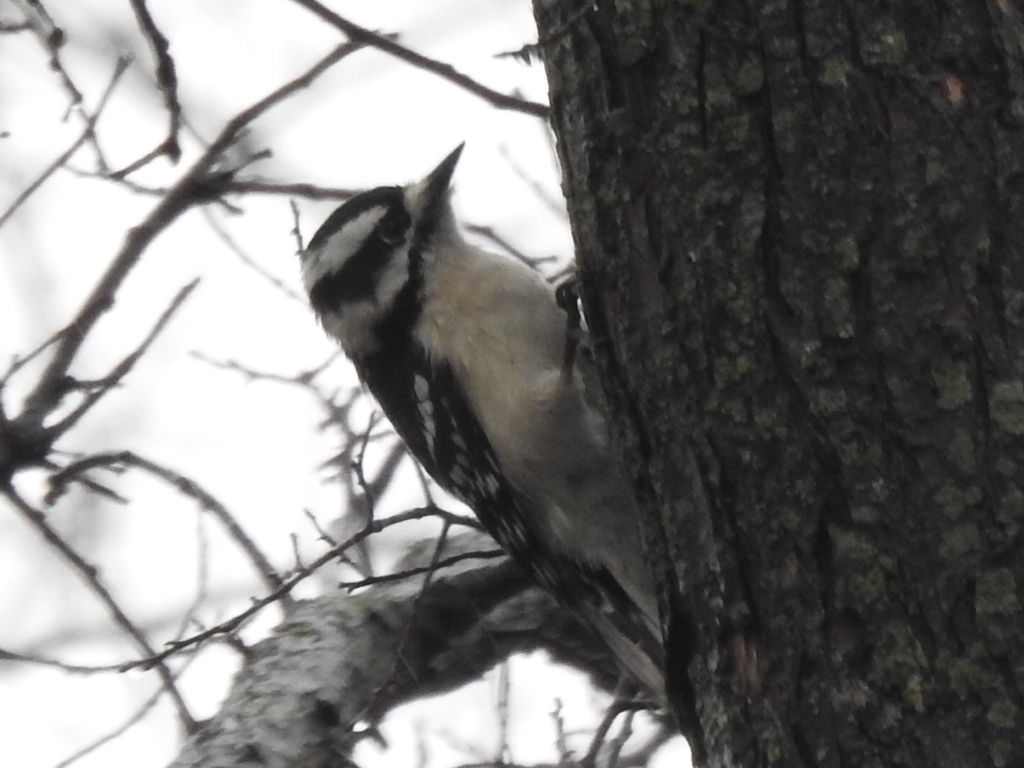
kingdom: Animalia
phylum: Chordata
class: Aves
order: Piciformes
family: Picidae
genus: Dryobates
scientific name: Dryobates pubescens
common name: Downy woodpecker
